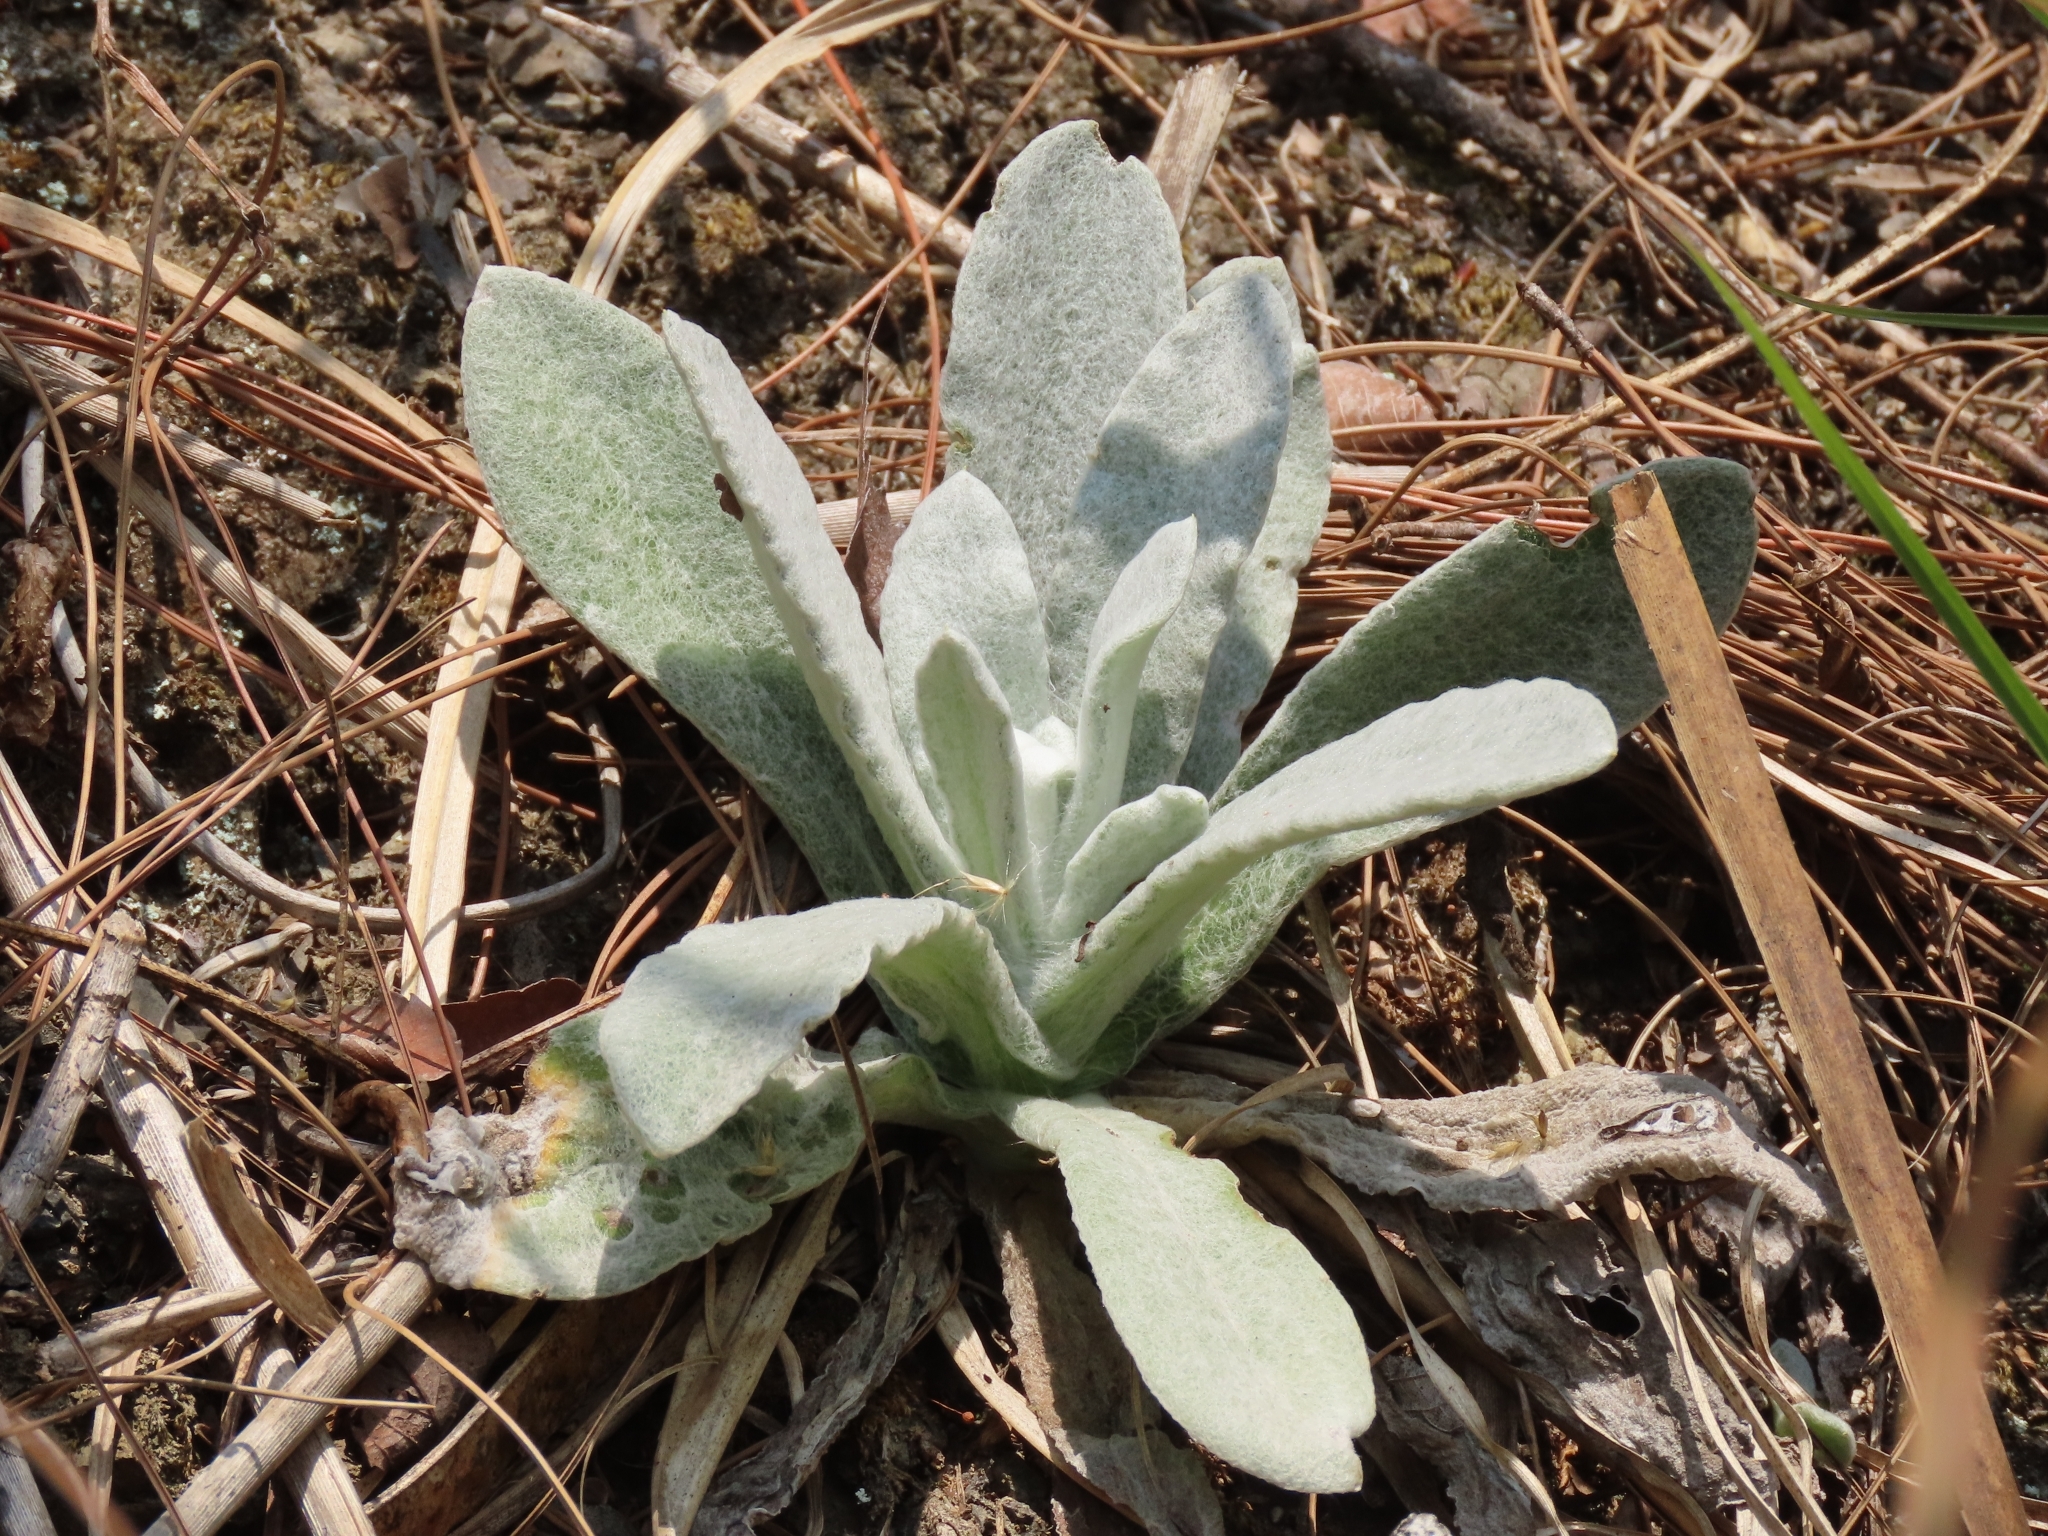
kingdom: Plantae
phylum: Tracheophyta
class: Magnoliopsida
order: Asterales
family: Asteraceae
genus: Pseudognaphalium
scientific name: Pseudognaphalium adnatum
